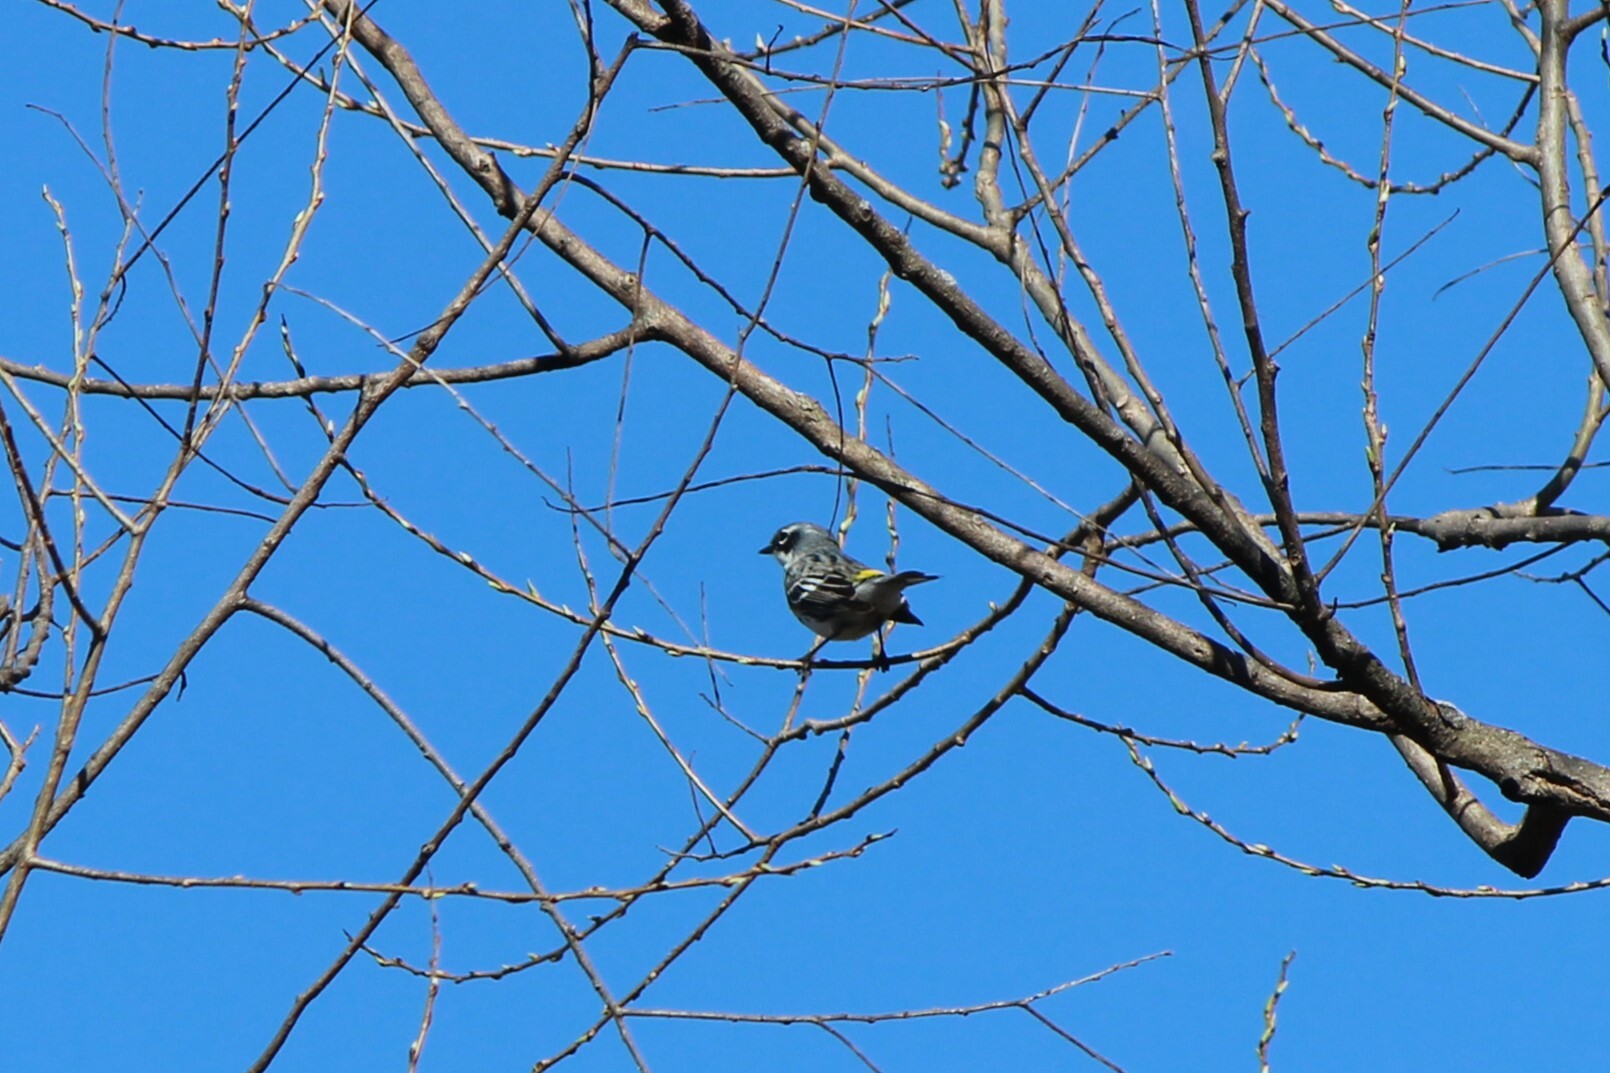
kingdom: Animalia
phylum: Chordata
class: Aves
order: Passeriformes
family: Parulidae
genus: Setophaga
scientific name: Setophaga coronata
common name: Myrtle warbler
